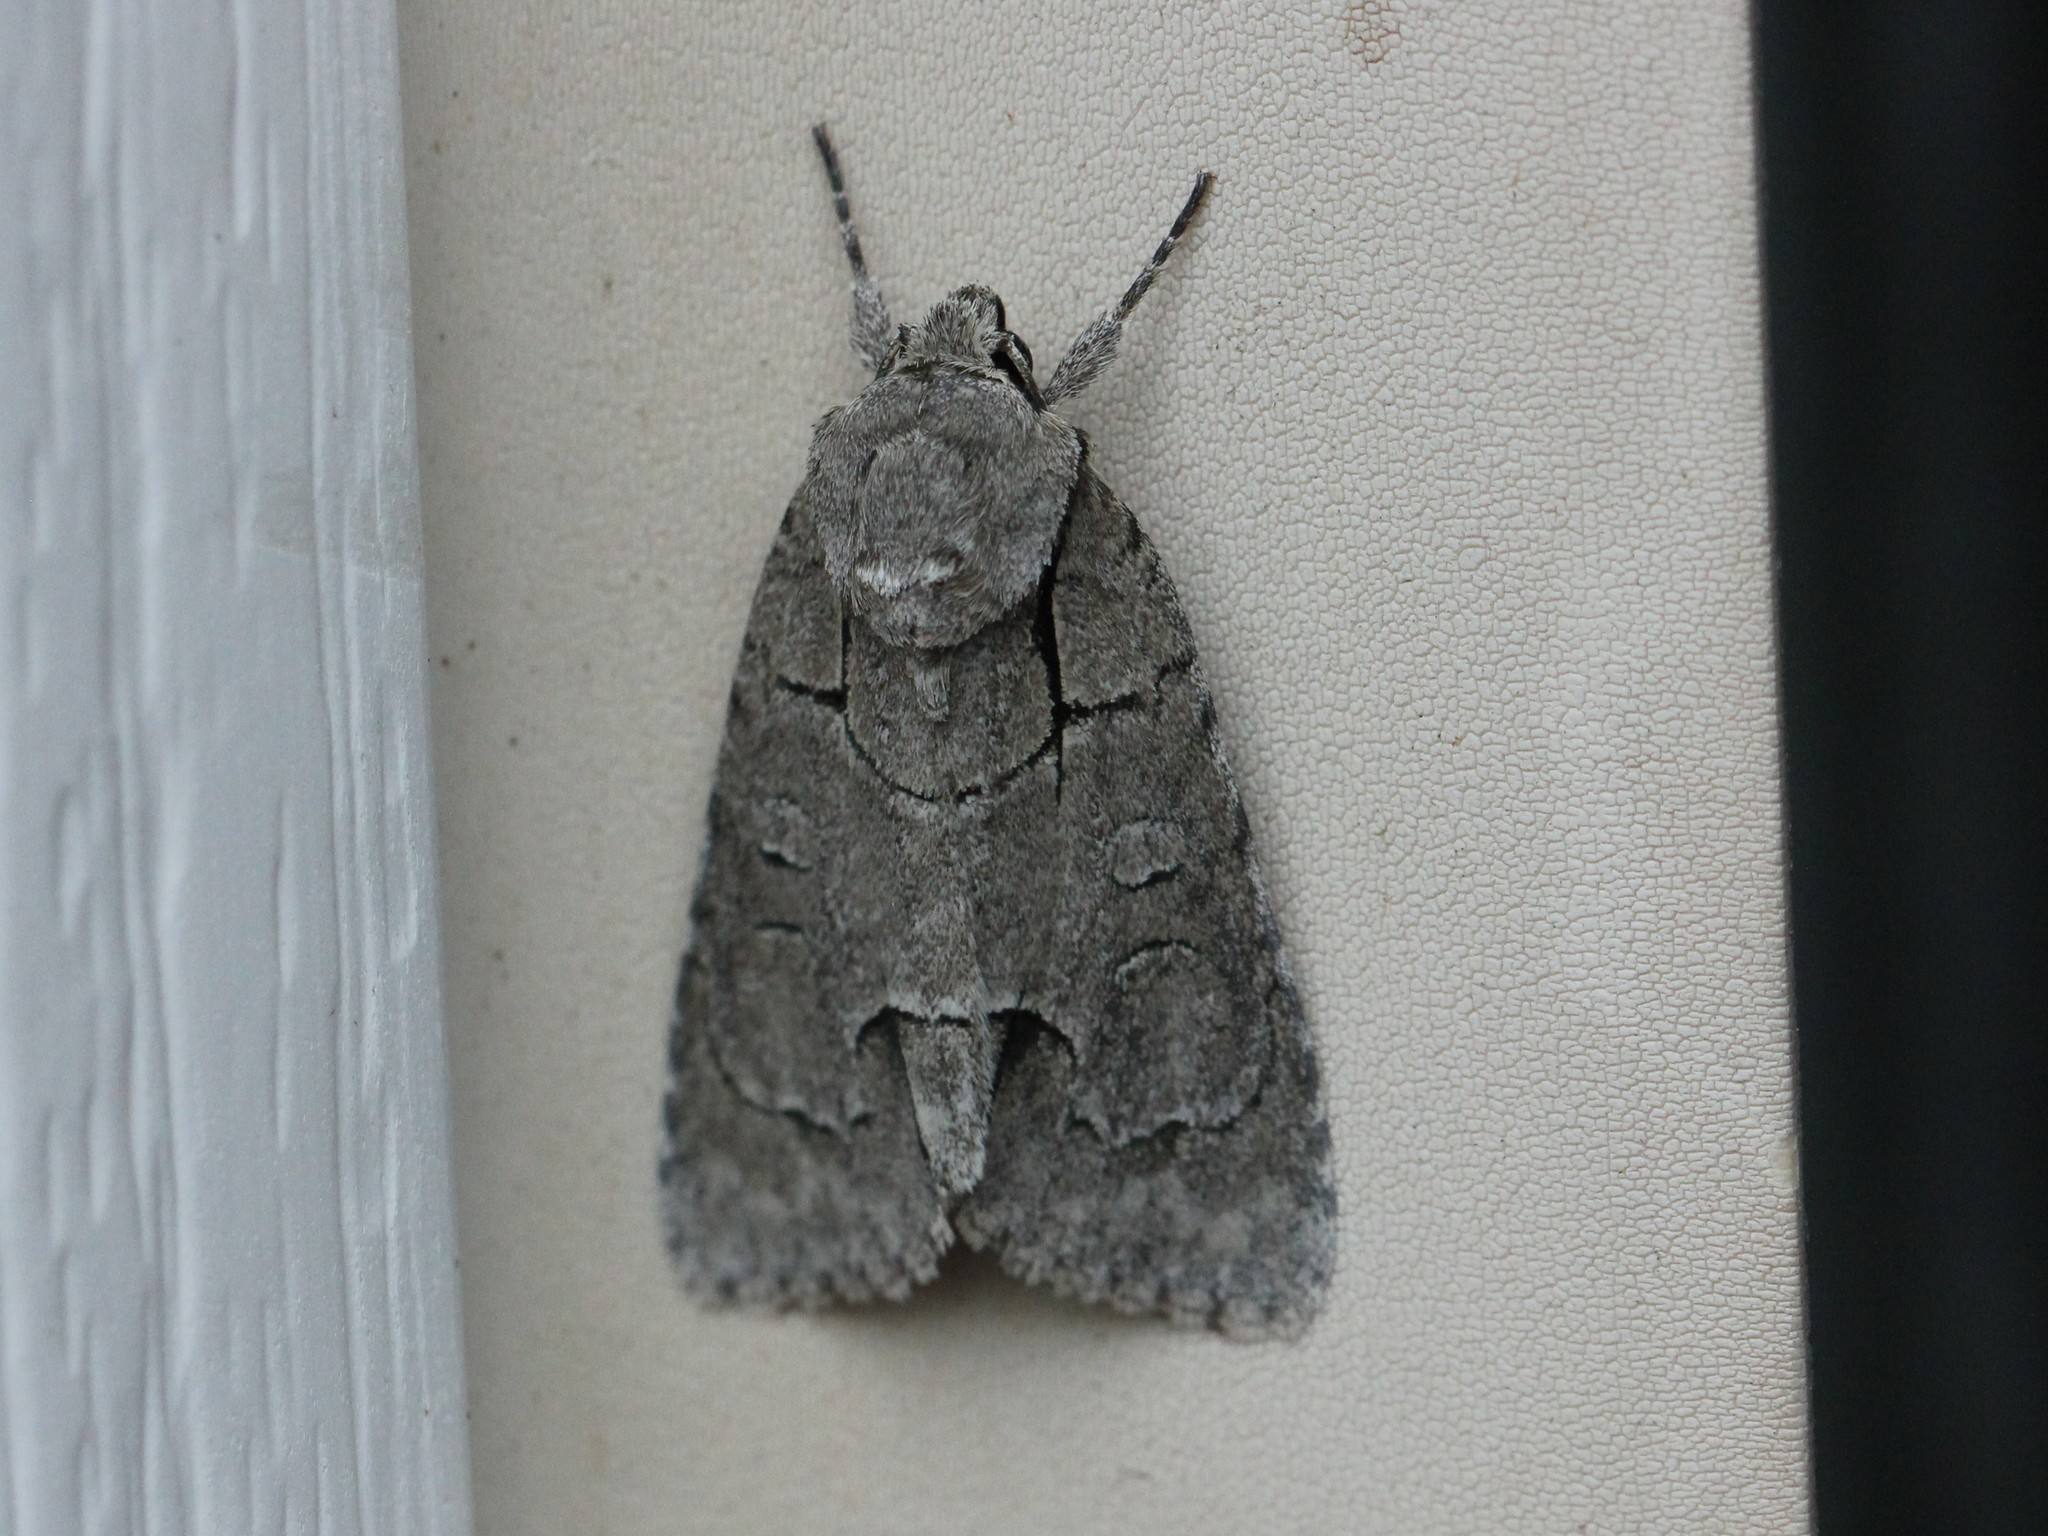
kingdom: Animalia
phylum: Arthropoda
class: Insecta
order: Lepidoptera
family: Noctuidae
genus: Acronicta
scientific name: Acronicta radcliffei
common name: Radcliffe's dagger
